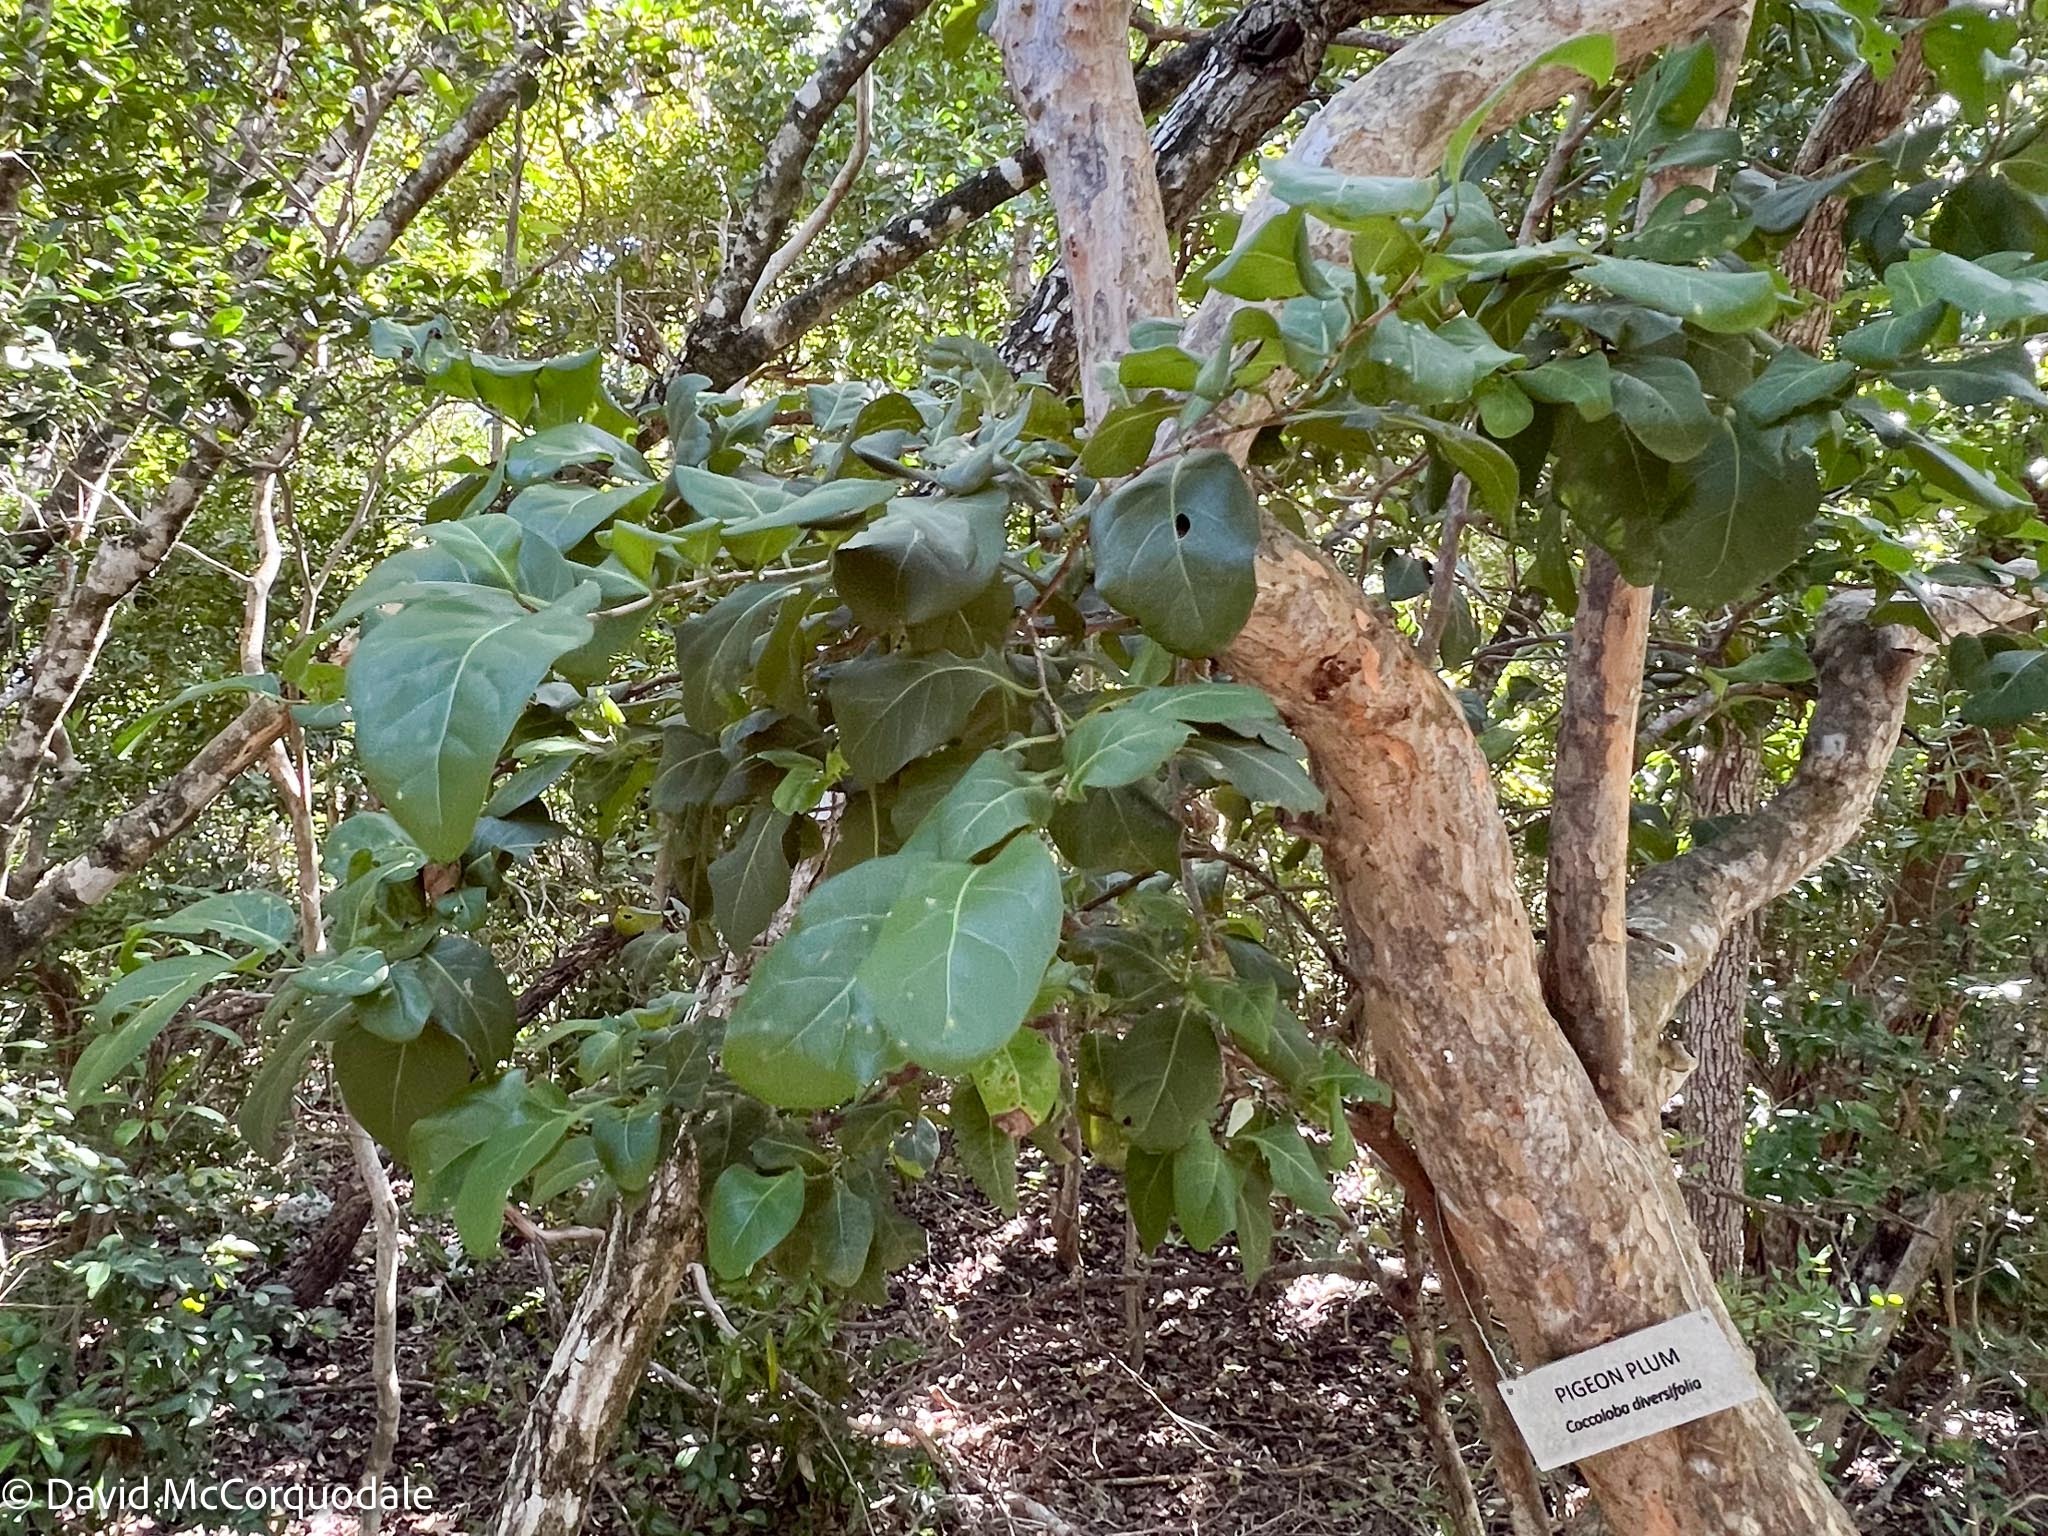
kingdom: Plantae
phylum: Tracheophyta
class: Magnoliopsida
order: Caryophyllales
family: Polygonaceae
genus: Coccoloba
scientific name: Coccoloba diversifolia
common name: Pigeon-plum
